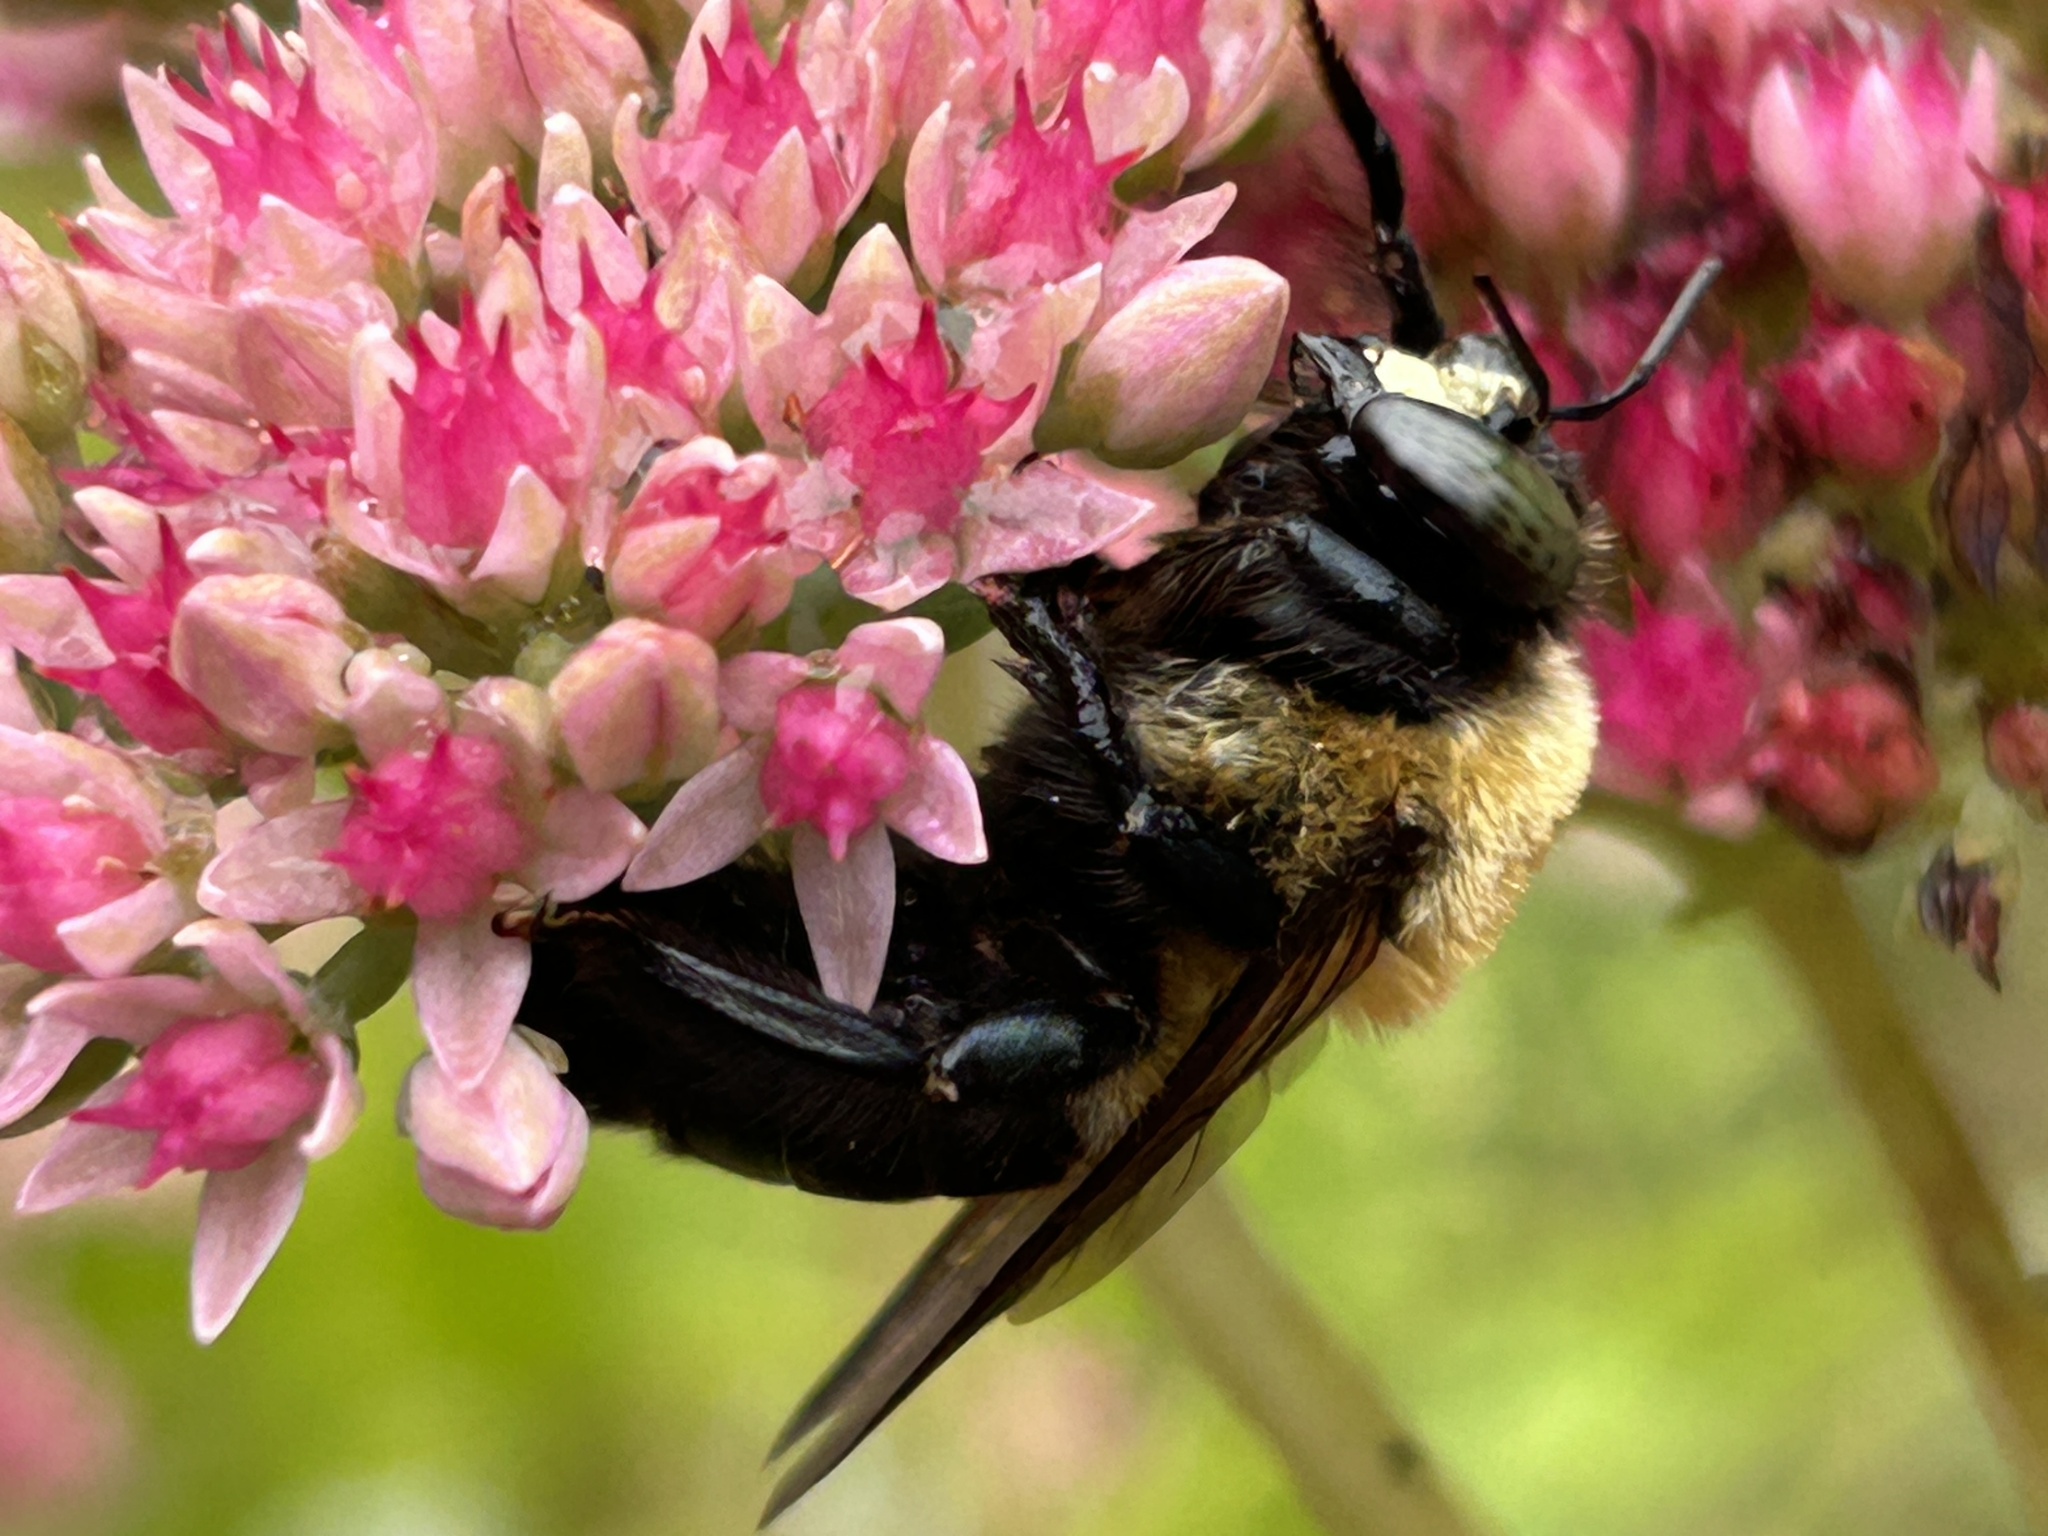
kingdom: Animalia
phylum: Arthropoda
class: Insecta
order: Hymenoptera
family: Apidae
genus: Xylocopa
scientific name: Xylocopa virginica
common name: Carpenter bee
